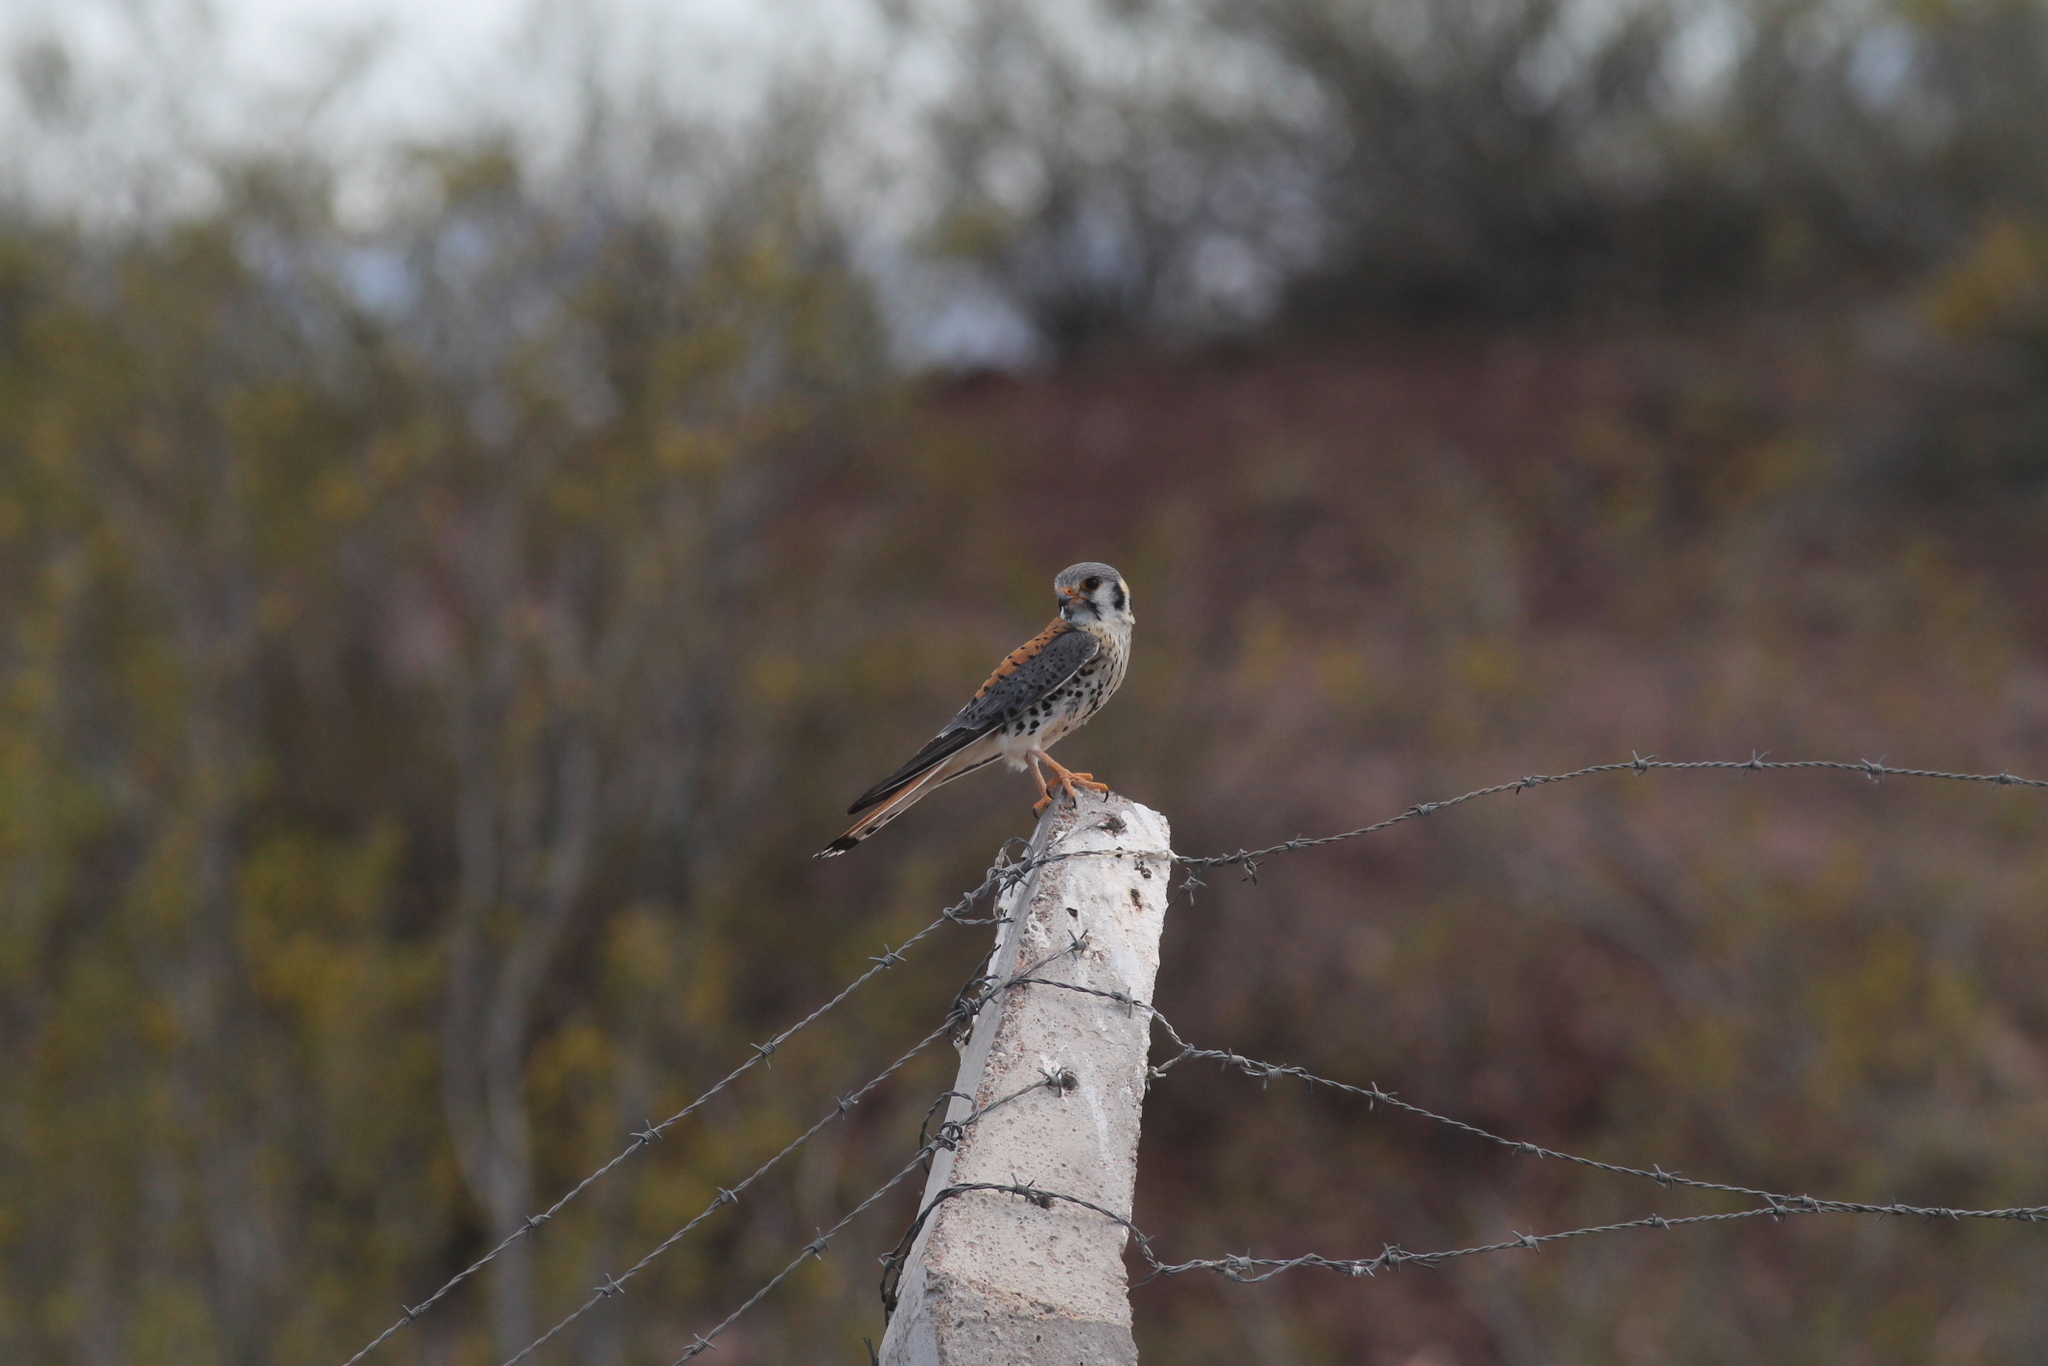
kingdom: Animalia
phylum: Chordata
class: Aves
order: Falconiformes
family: Falconidae
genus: Falco
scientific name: Falco sparverius
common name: American kestrel
